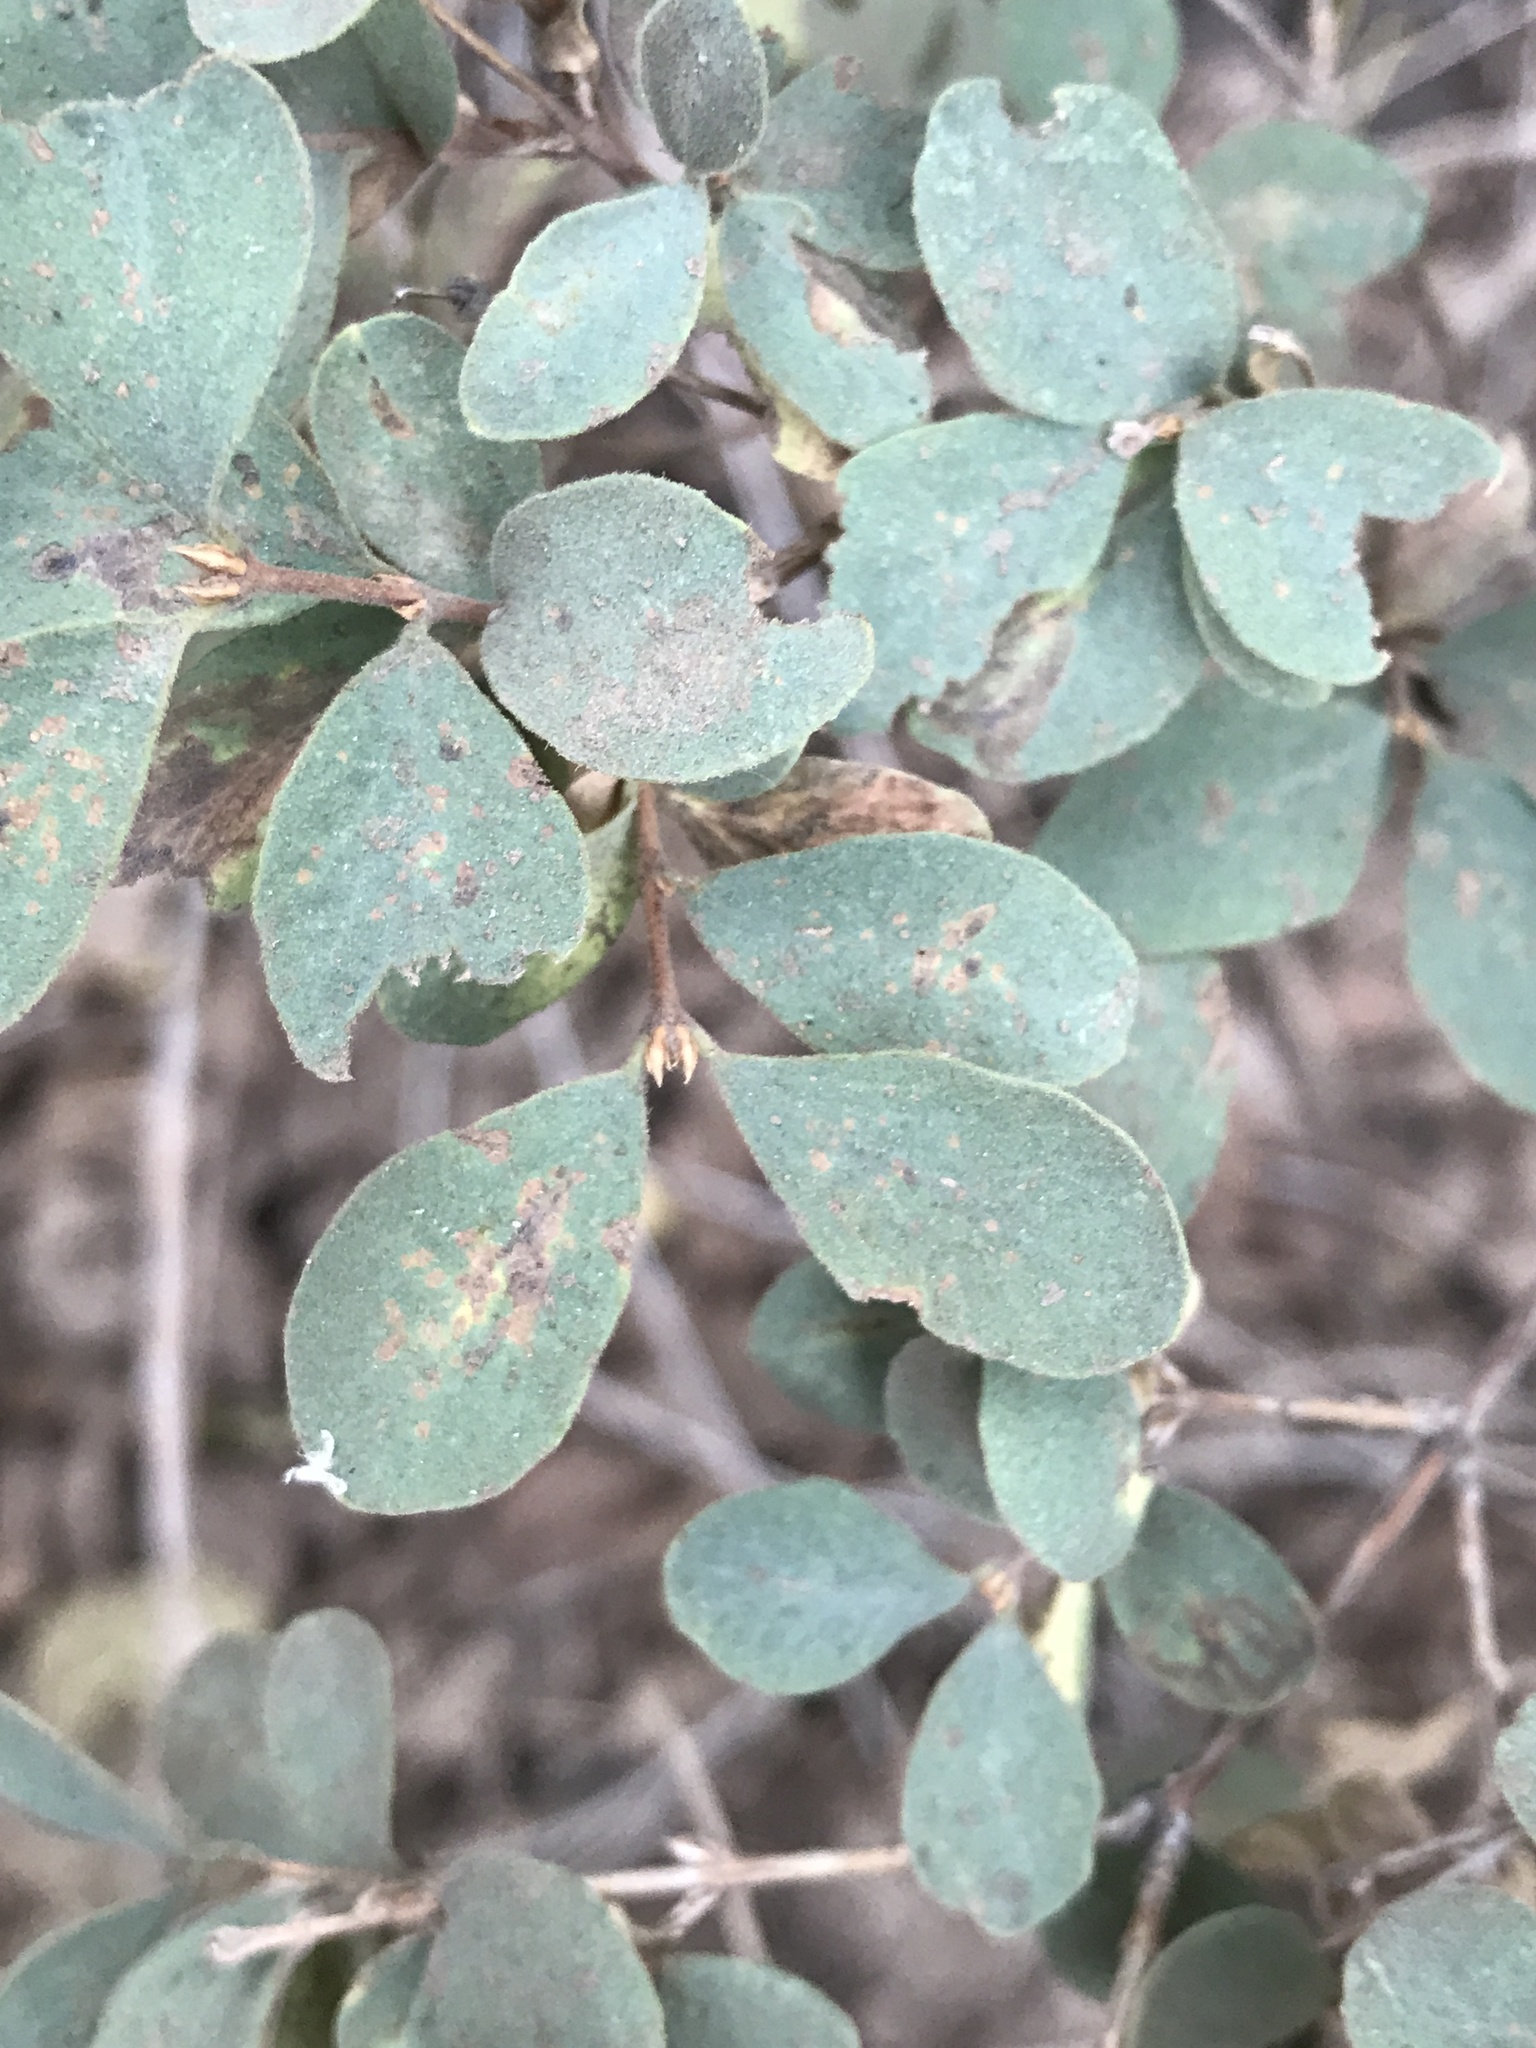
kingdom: Plantae
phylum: Tracheophyta
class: Magnoliopsida
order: Dipsacales
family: Caprifoliaceae
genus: Symphoricarpos
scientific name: Symphoricarpos rotundifolius
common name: Round-leaved snowberry
